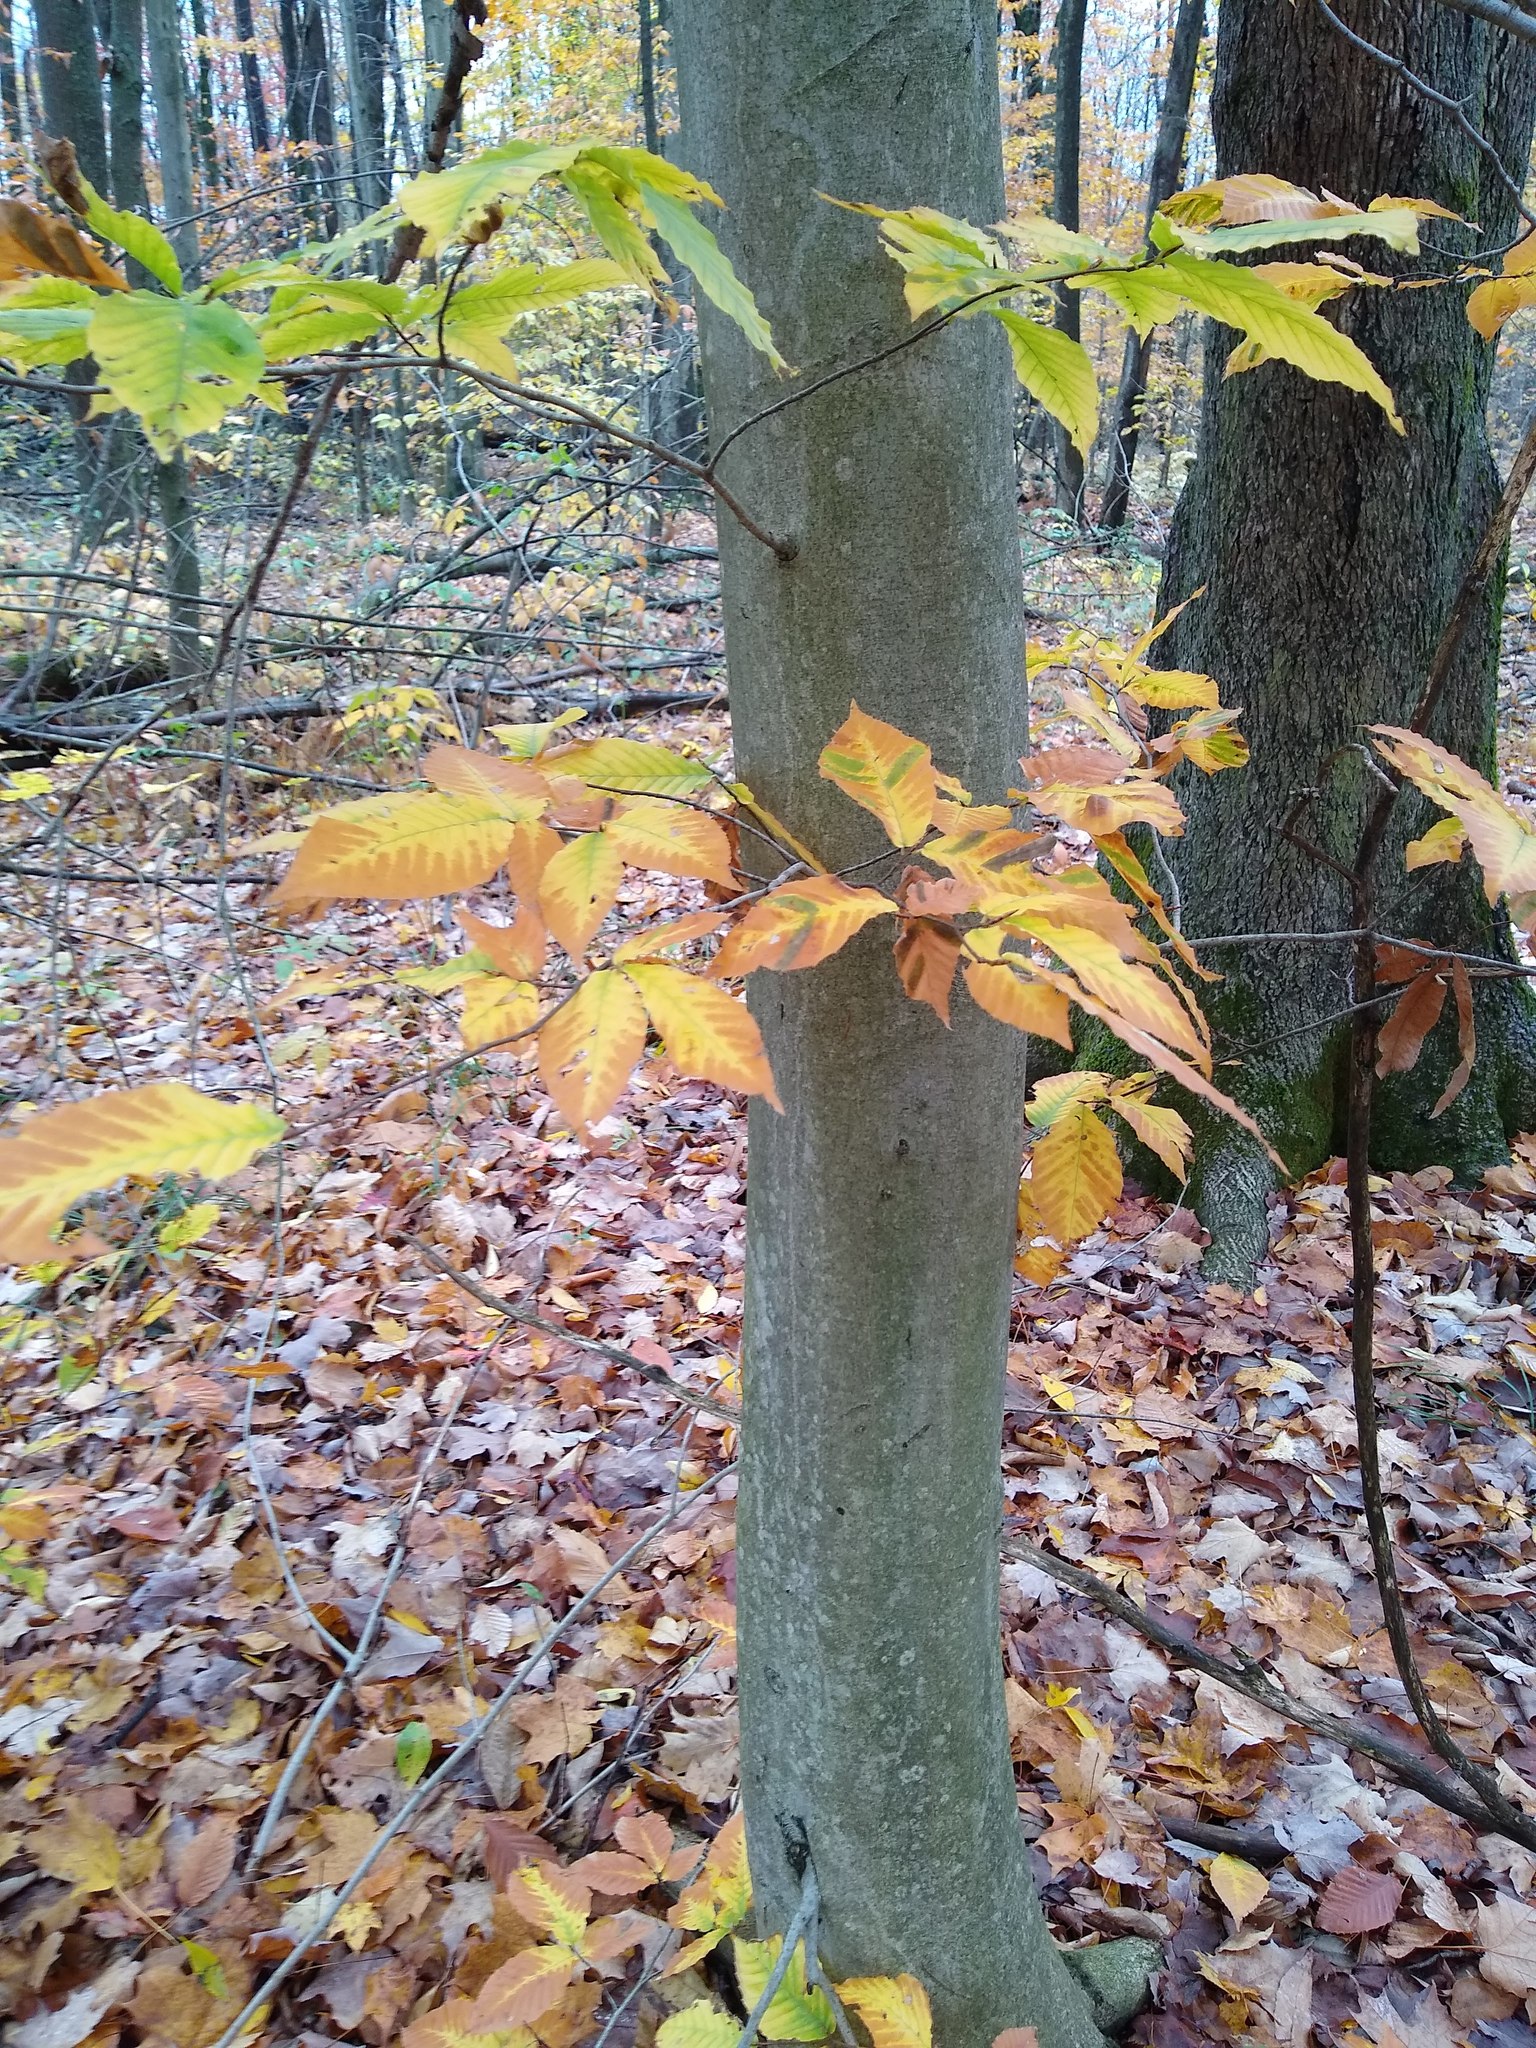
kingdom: Plantae
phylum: Tracheophyta
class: Magnoliopsida
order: Fagales
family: Fagaceae
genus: Fagus
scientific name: Fagus grandifolia
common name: American beech
